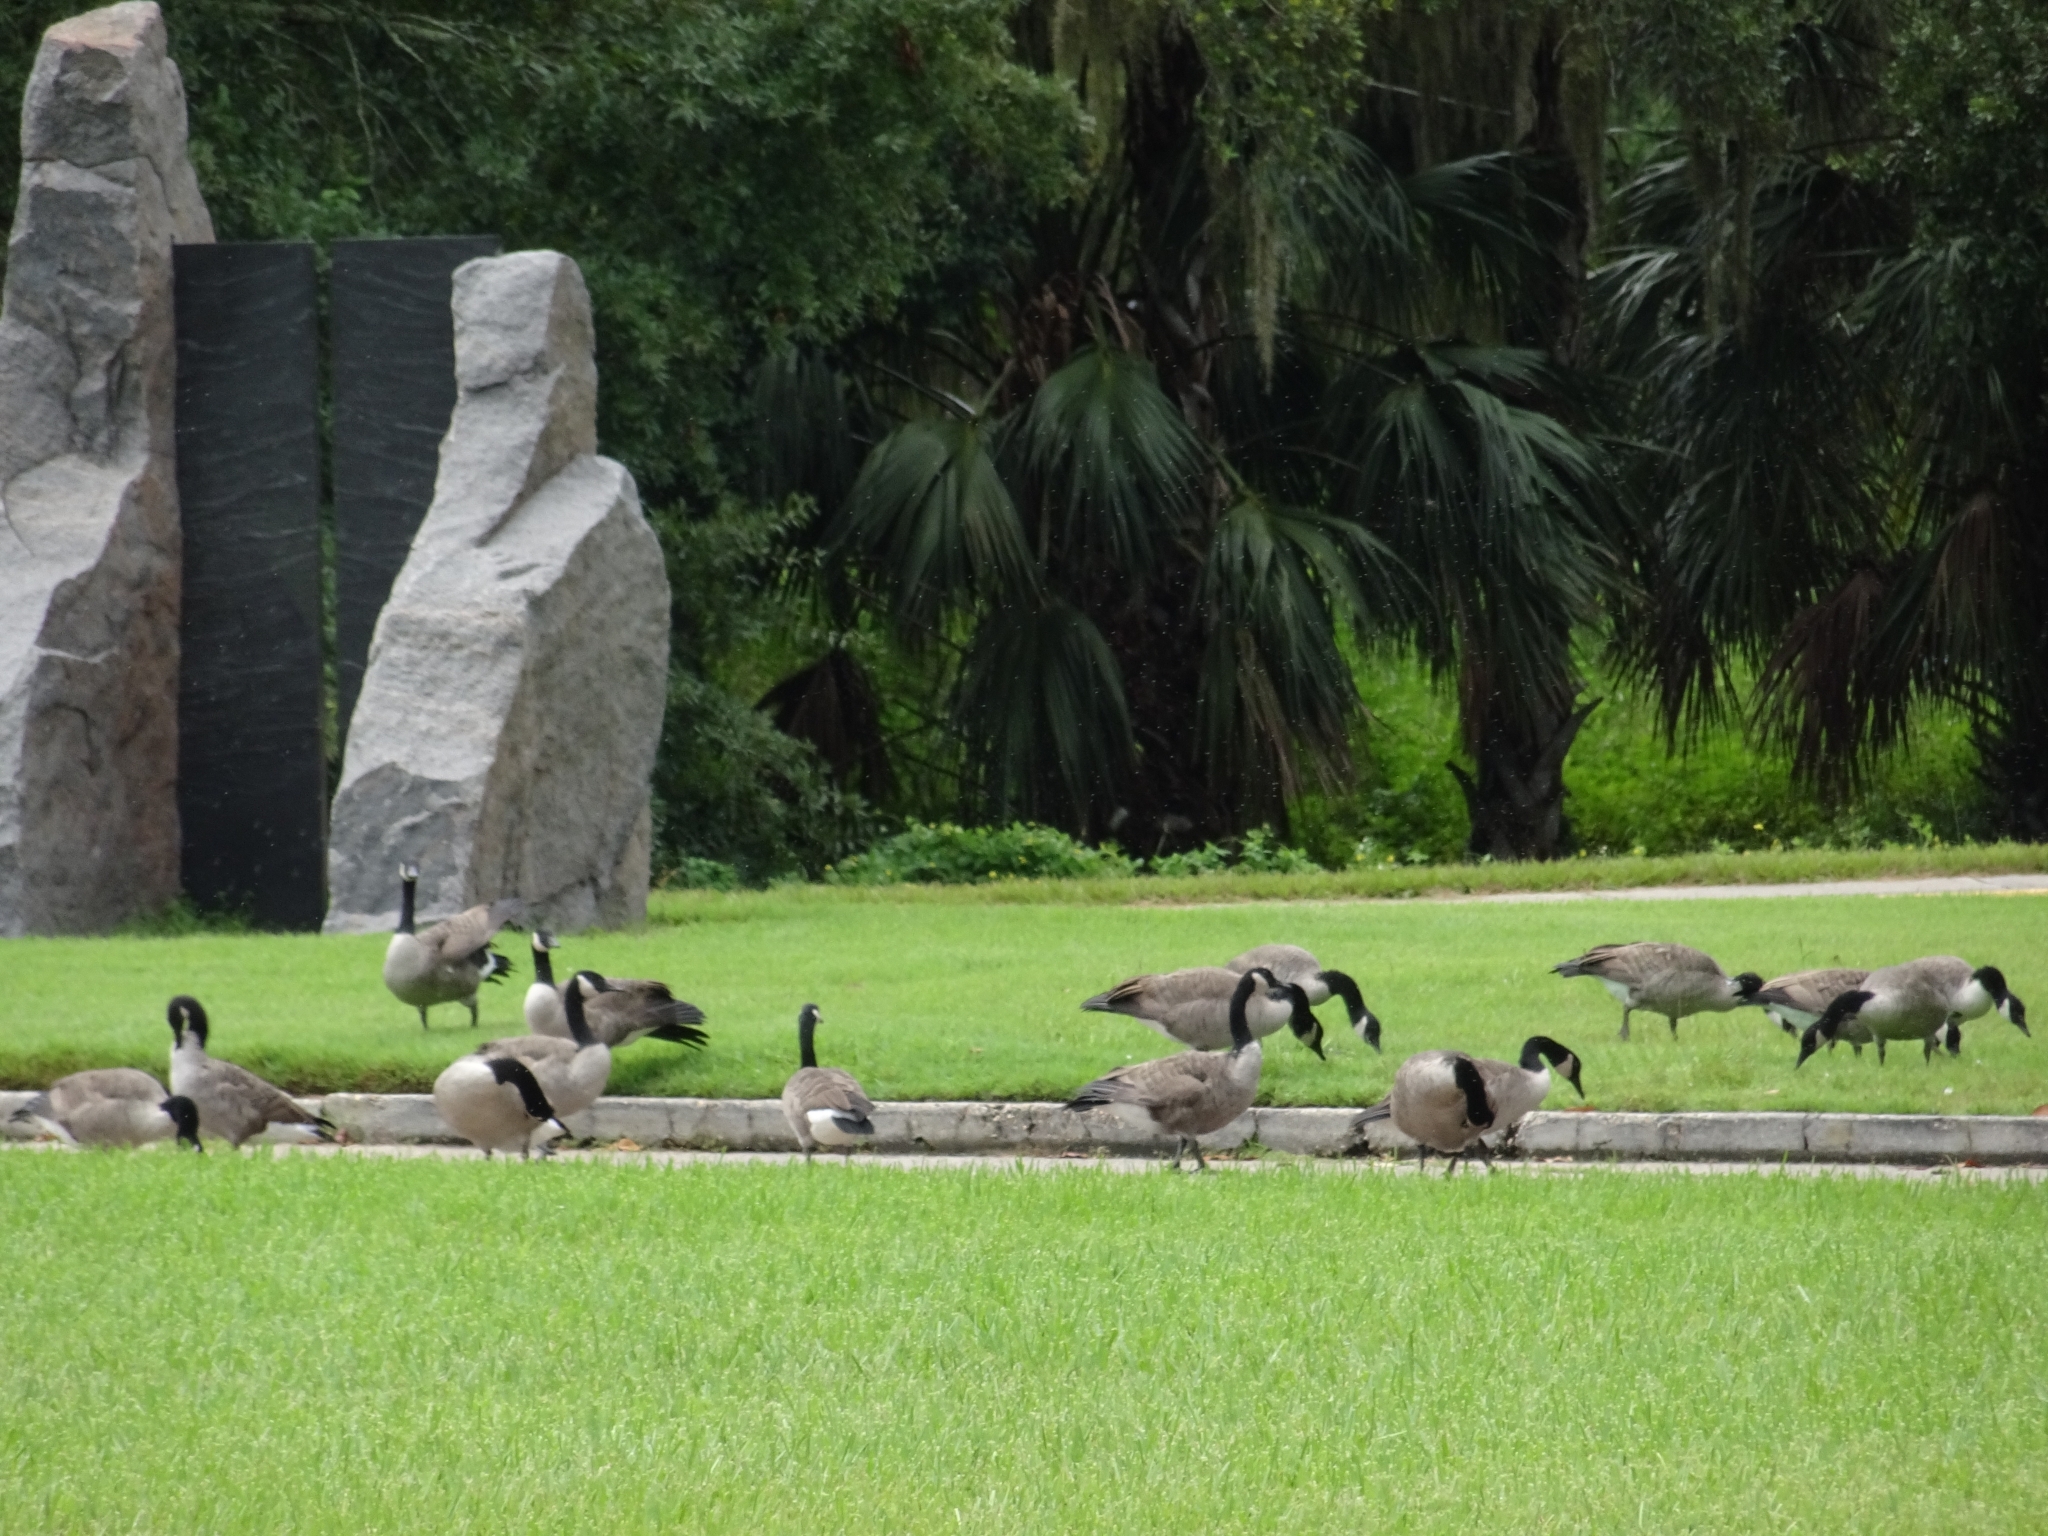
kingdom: Animalia
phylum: Chordata
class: Aves
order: Anseriformes
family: Anatidae
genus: Branta
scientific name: Branta canadensis
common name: Canada goose
